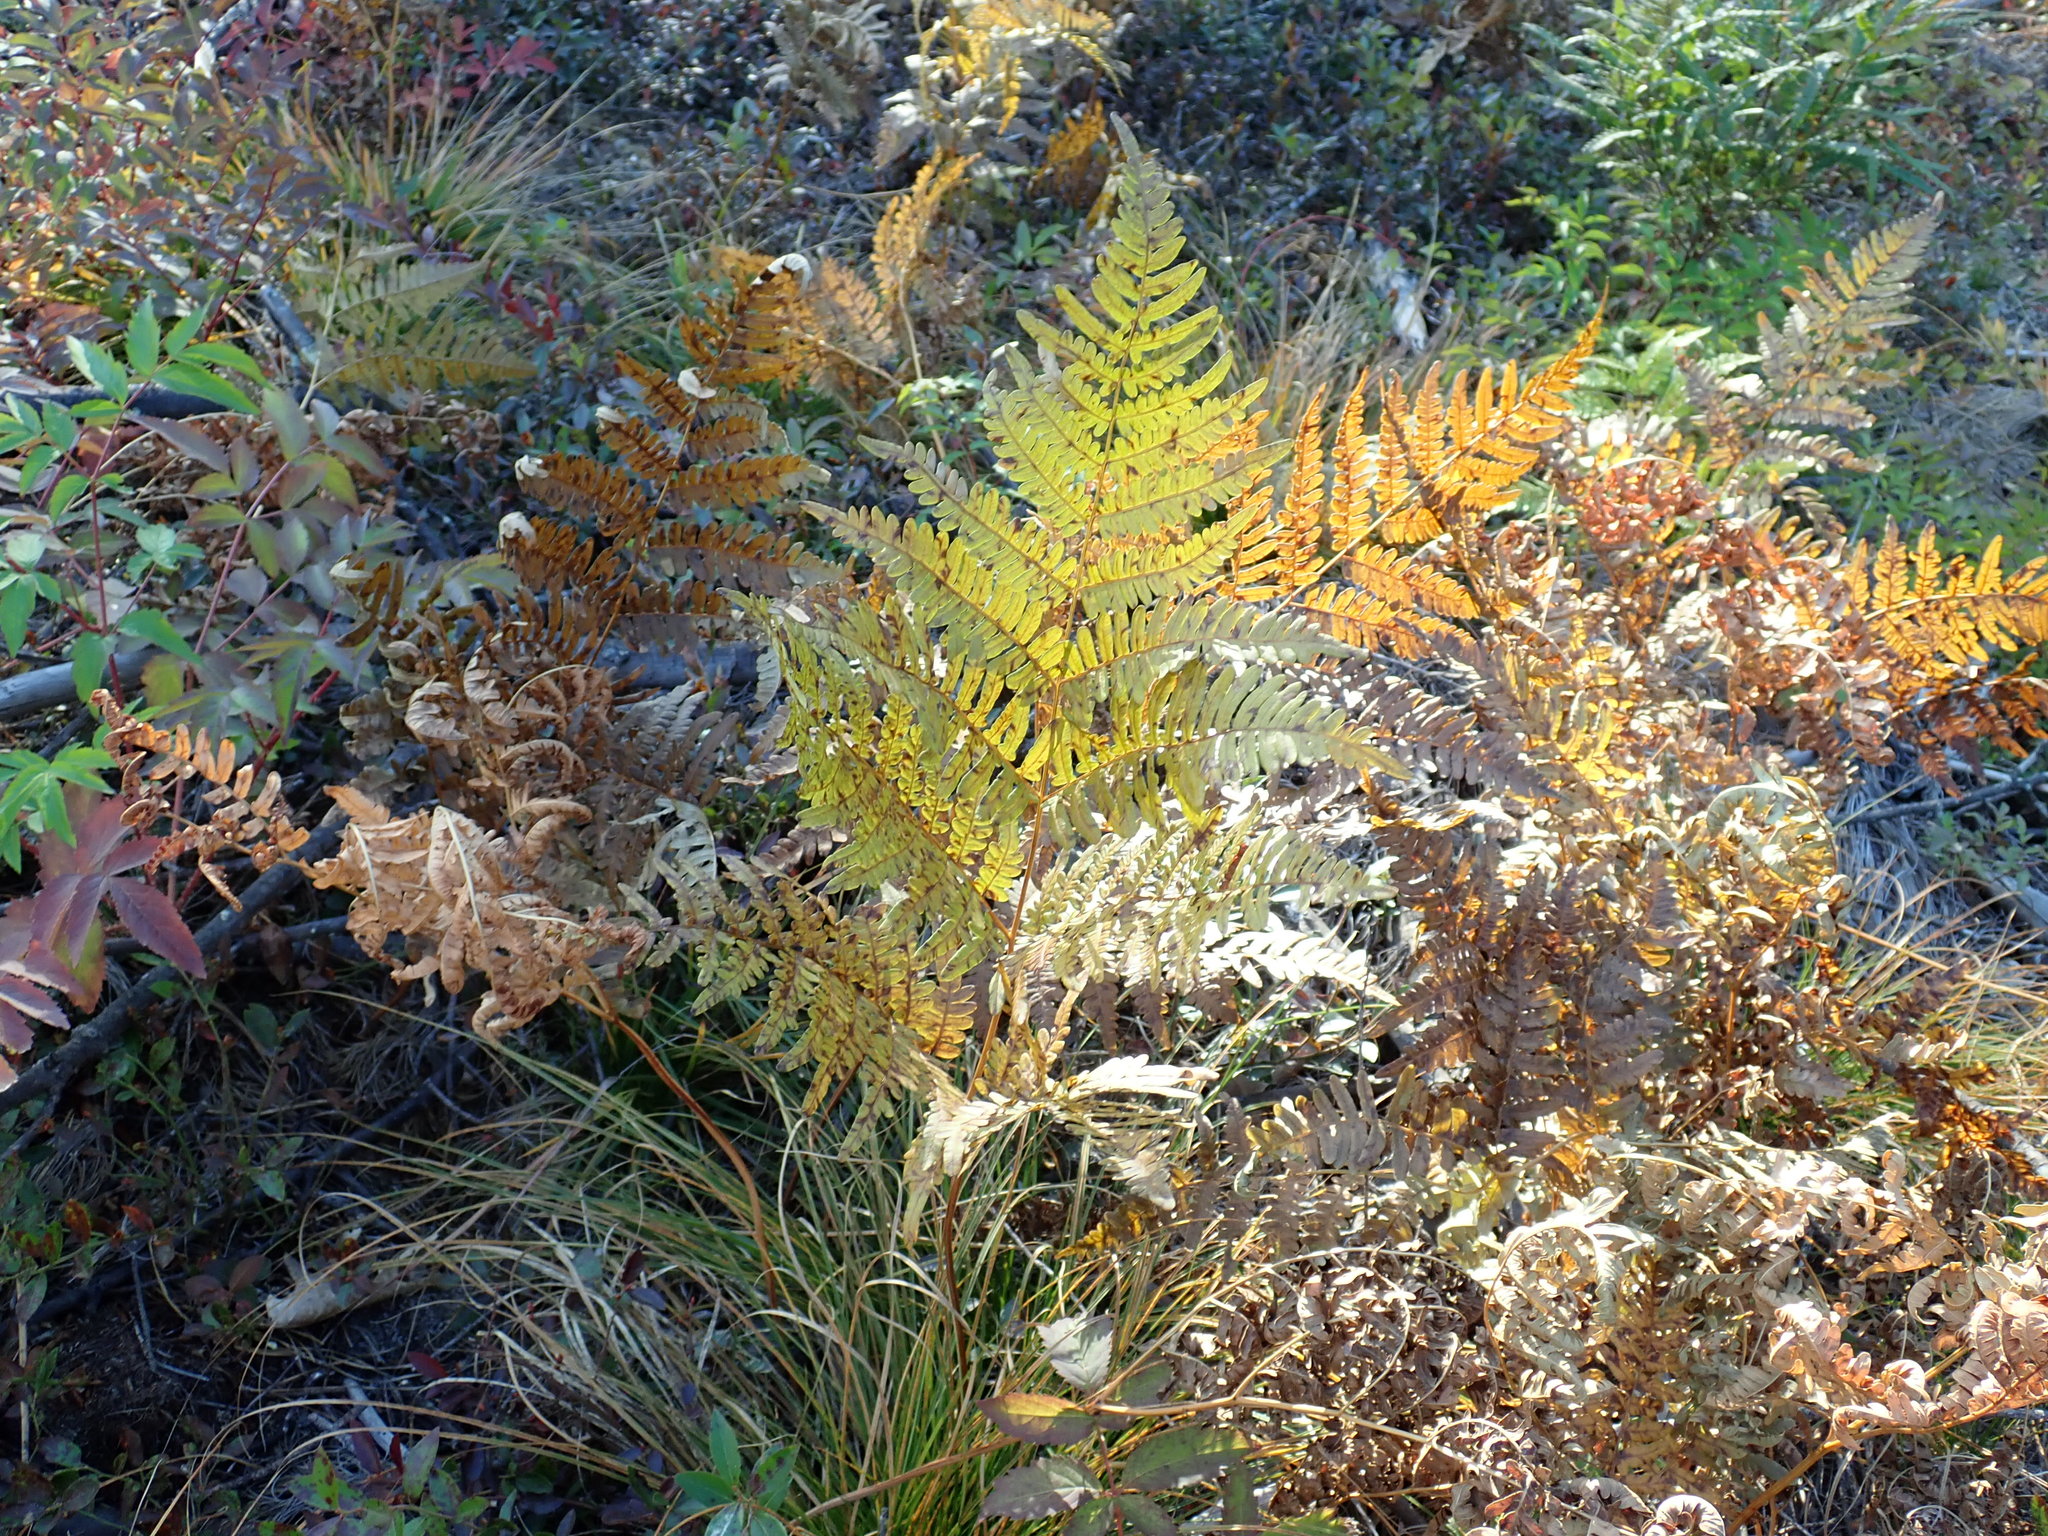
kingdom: Plantae
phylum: Tracheophyta
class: Polypodiopsida
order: Polypodiales
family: Dennstaedtiaceae
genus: Pteridium
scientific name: Pteridium aquilinum
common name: Bracken
